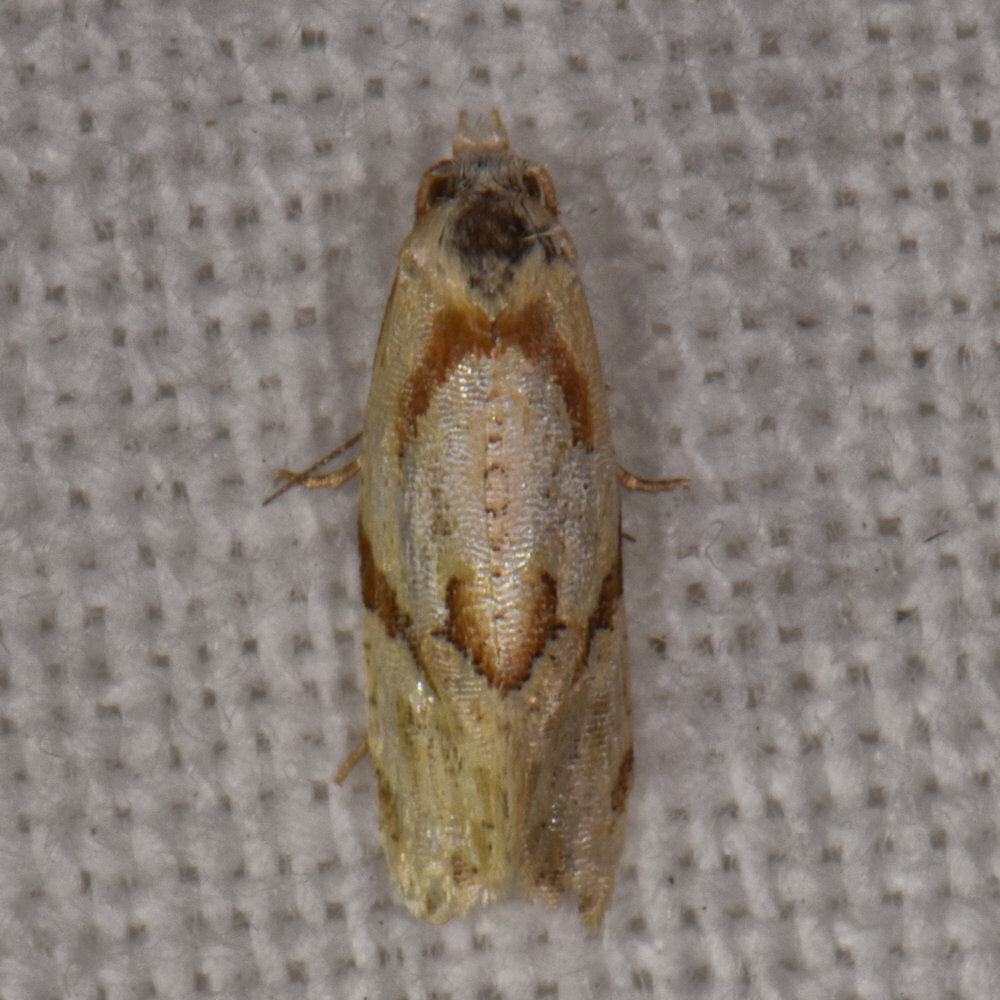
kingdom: Animalia
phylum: Arthropoda
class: Insecta
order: Lepidoptera
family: Tortricidae
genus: Aethes
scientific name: Aethes baloghi
